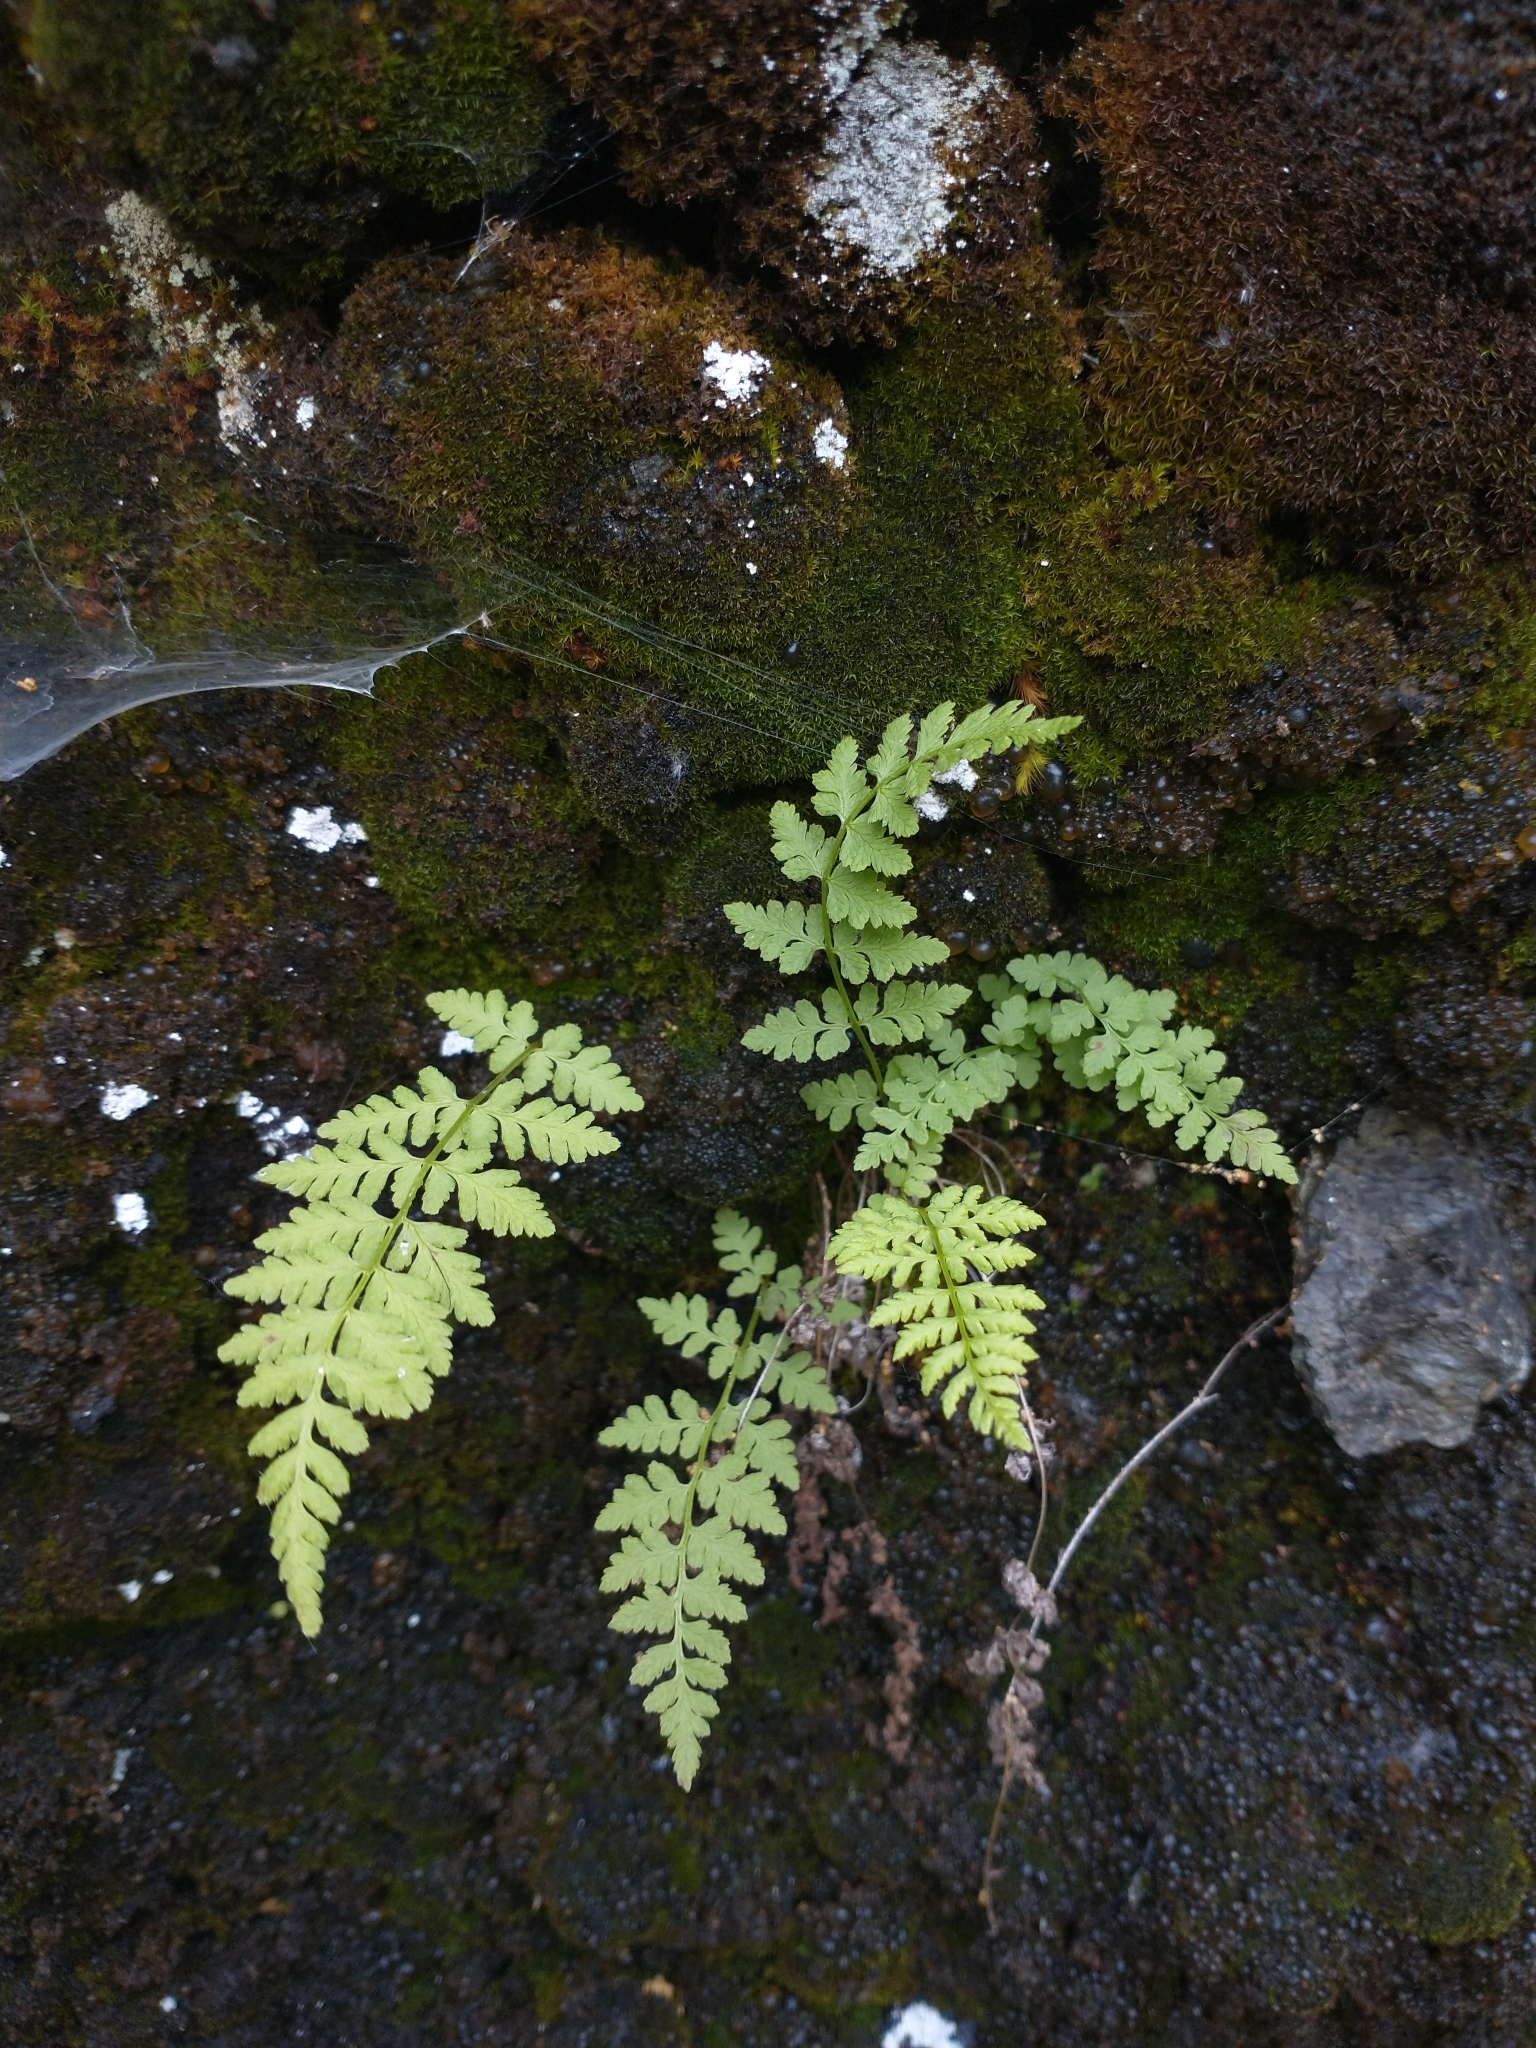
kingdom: Plantae
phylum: Tracheophyta
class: Polypodiopsida
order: Polypodiales
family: Cystopteridaceae
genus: Cystopteris
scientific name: Cystopteris fragilis
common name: Brittle bladder fern
